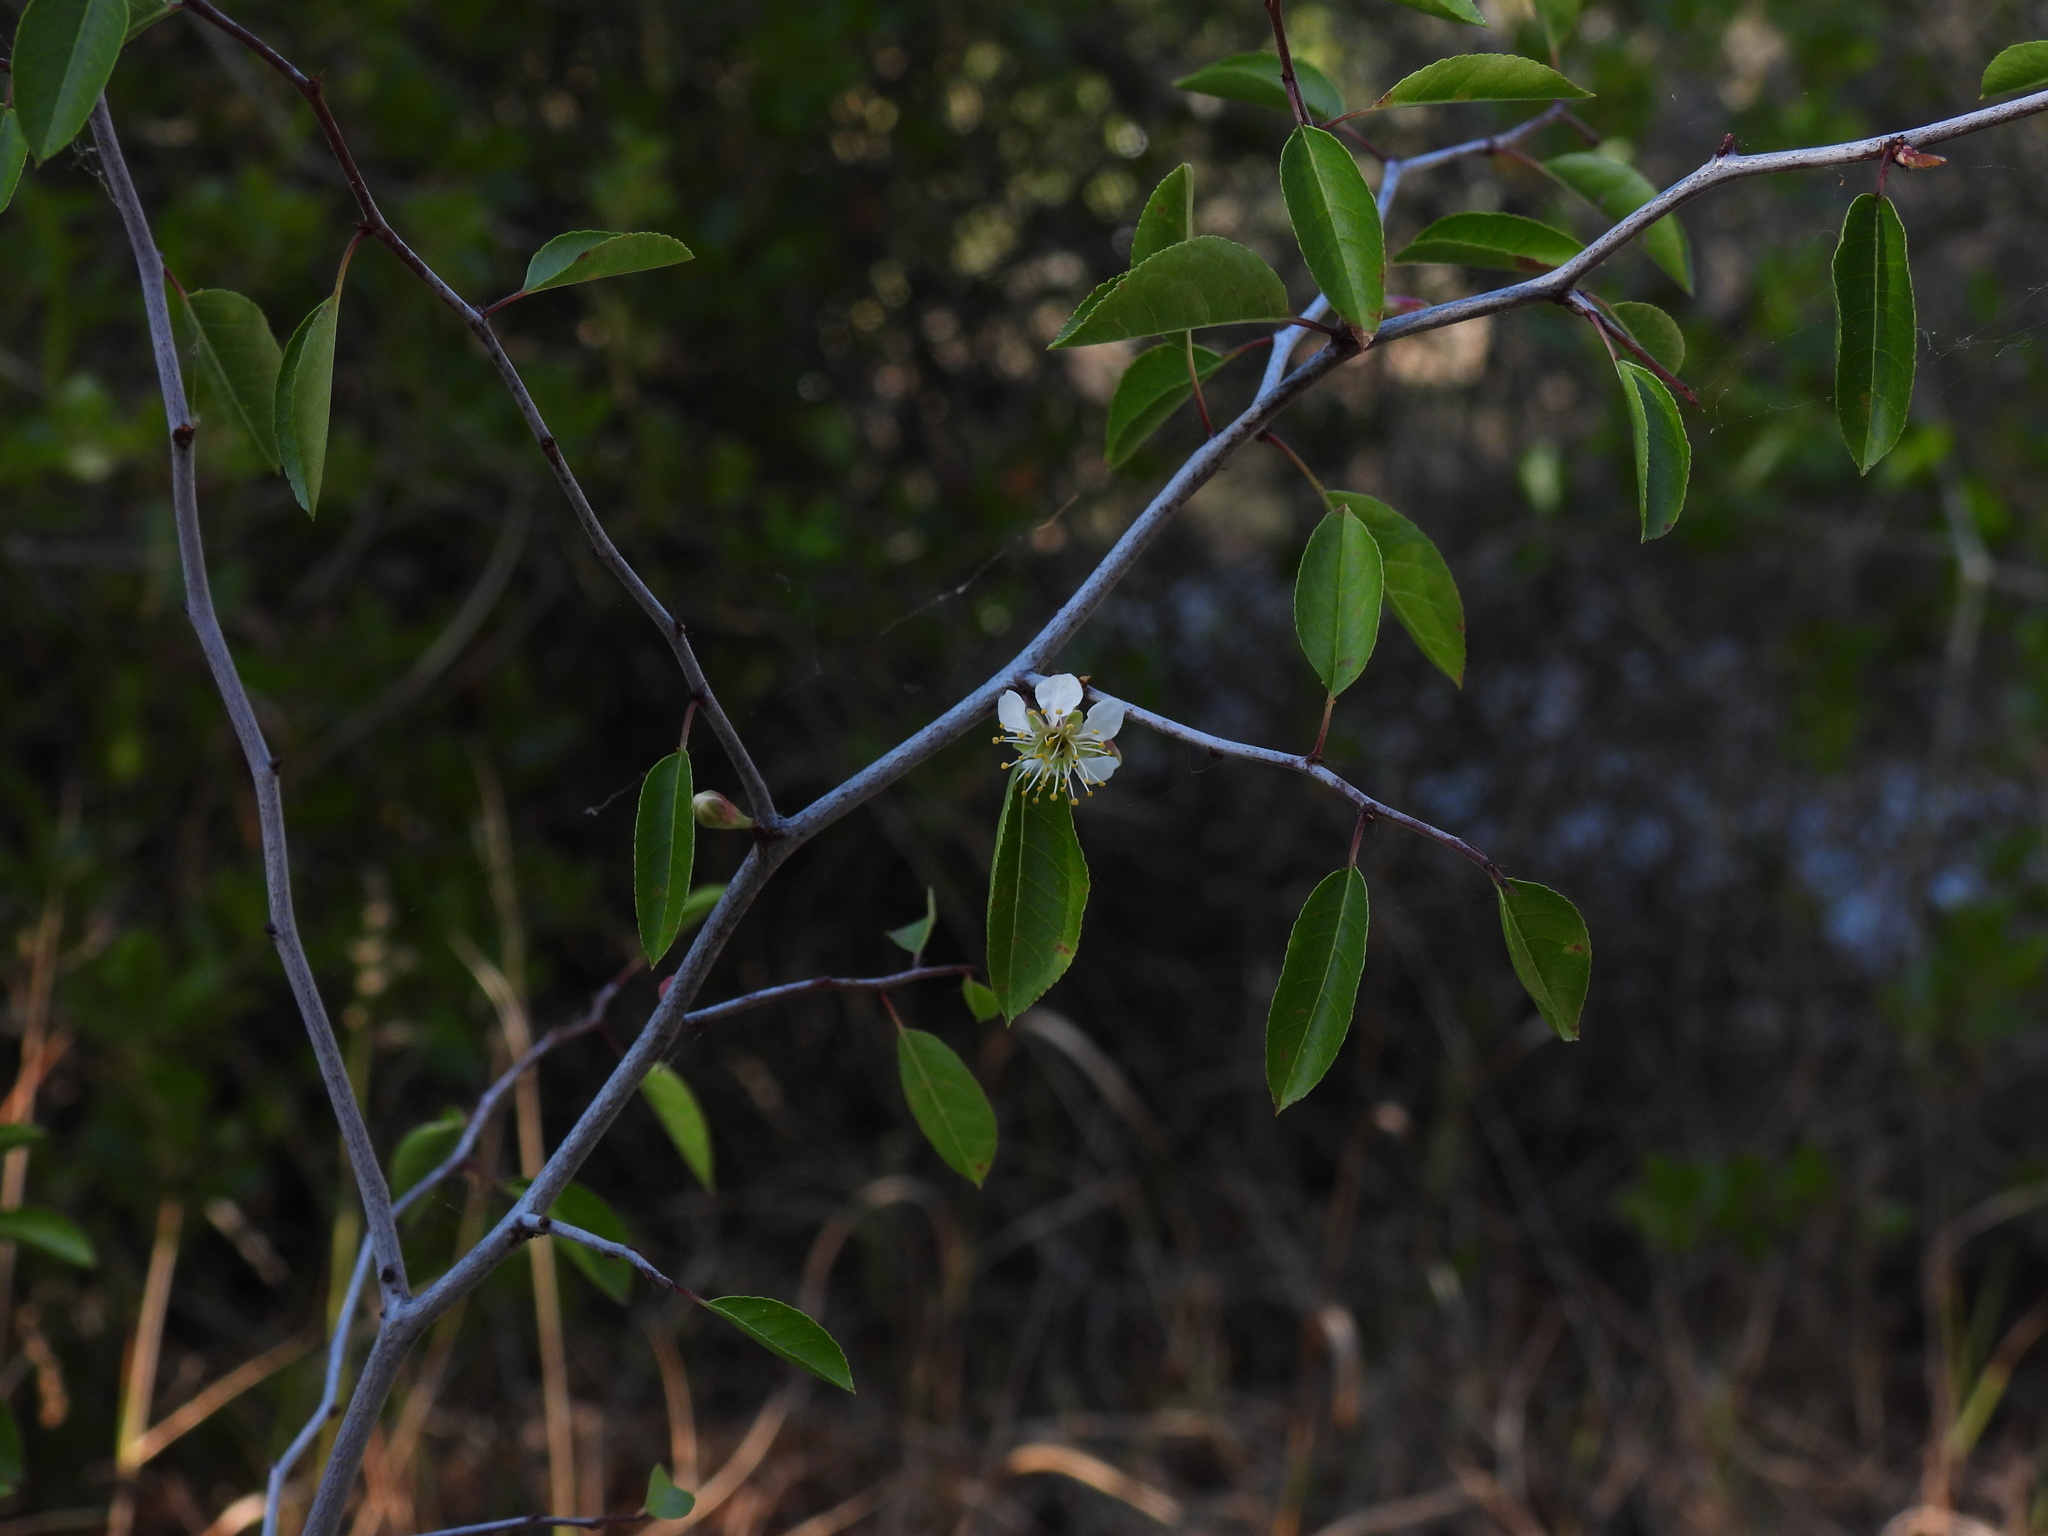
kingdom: Plantae
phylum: Tracheophyta
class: Magnoliopsida
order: Rosales
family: Rosaceae
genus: Prunus
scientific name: Prunus geniculata
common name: Scrub plum
